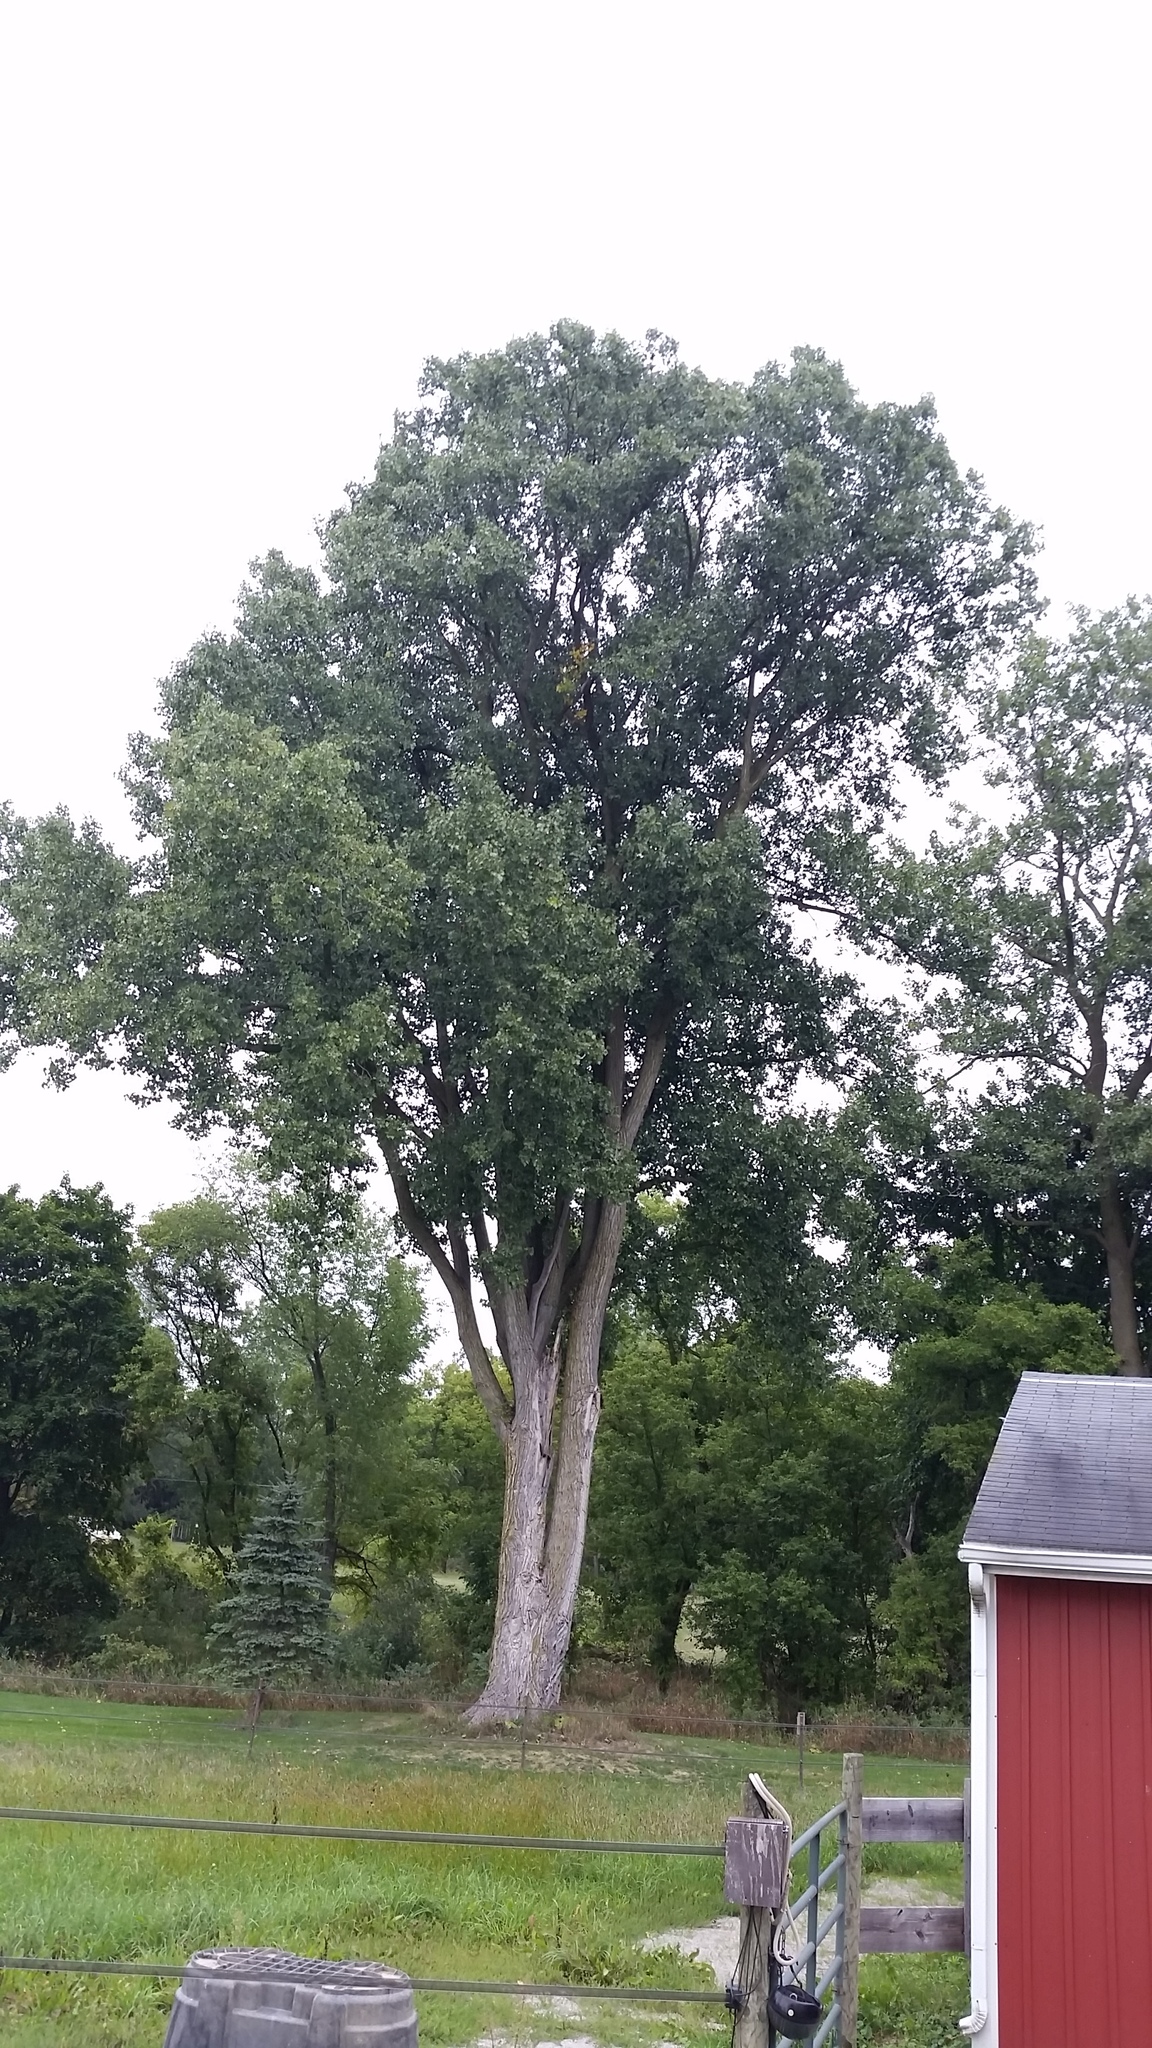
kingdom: Plantae
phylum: Tracheophyta
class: Magnoliopsida
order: Malpighiales
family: Salicaceae
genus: Populus
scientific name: Populus deltoides
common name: Eastern cottonwood
